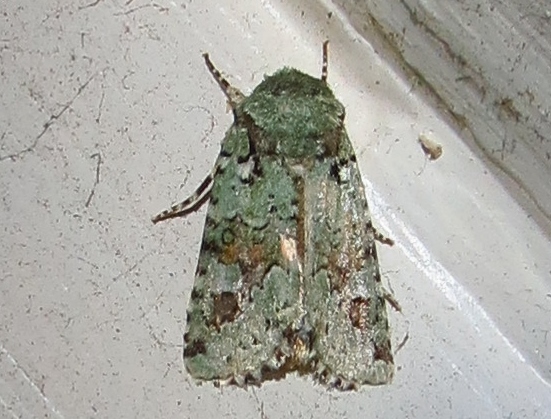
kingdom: Animalia
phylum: Arthropoda
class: Insecta
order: Lepidoptera
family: Noctuidae
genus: Lacinipolia
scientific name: Lacinipolia laudabilis
